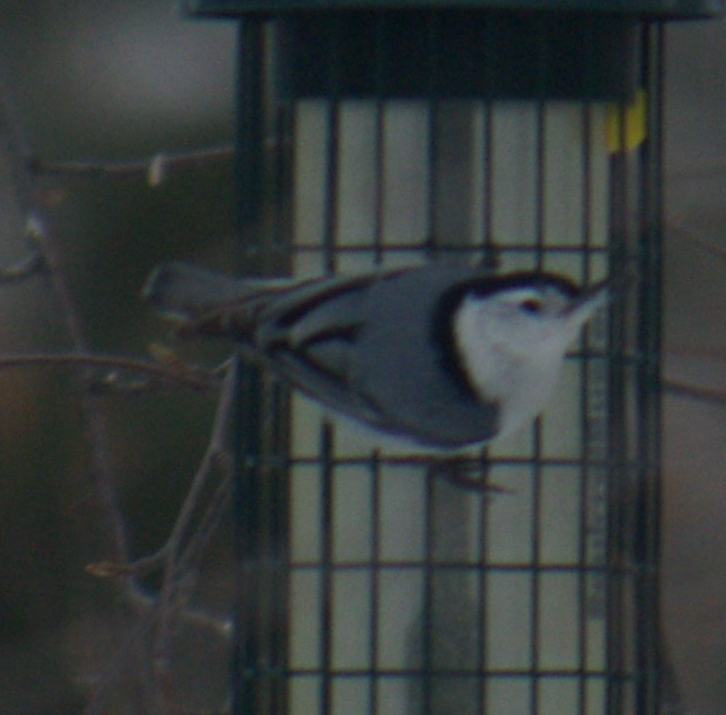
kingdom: Animalia
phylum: Chordata
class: Aves
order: Passeriformes
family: Sittidae
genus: Sitta
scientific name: Sitta carolinensis
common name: White-breasted nuthatch
